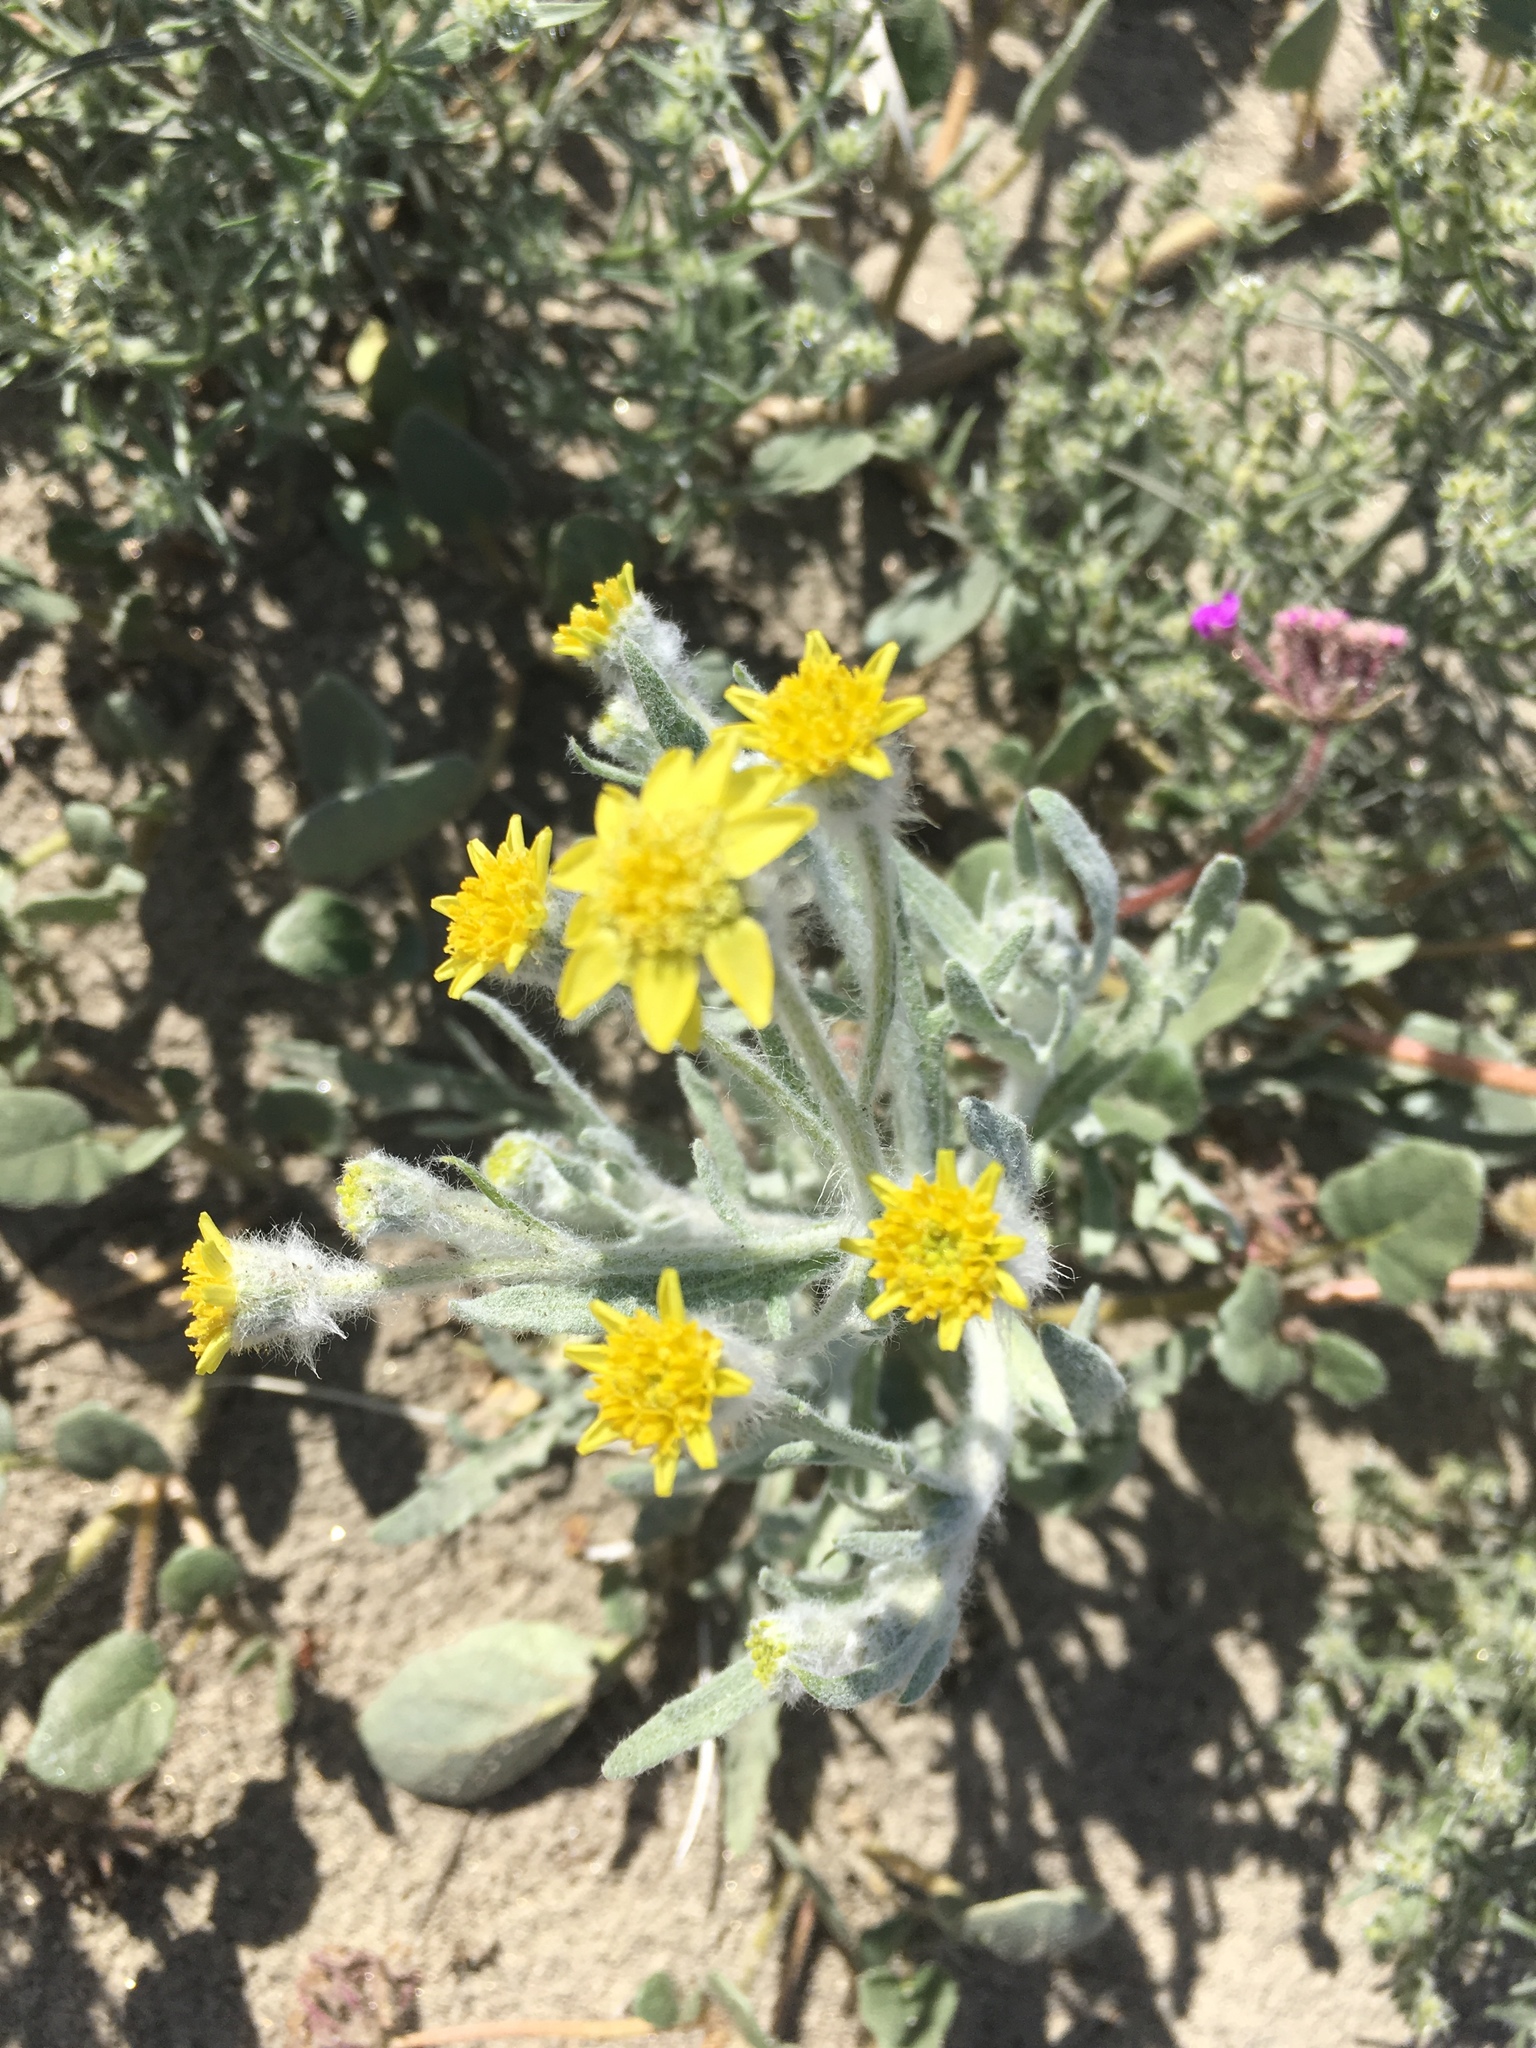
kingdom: Plantae
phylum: Tracheophyta
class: Magnoliopsida
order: Asterales
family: Asteraceae
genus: Baileya
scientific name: Baileya pauciradiata
